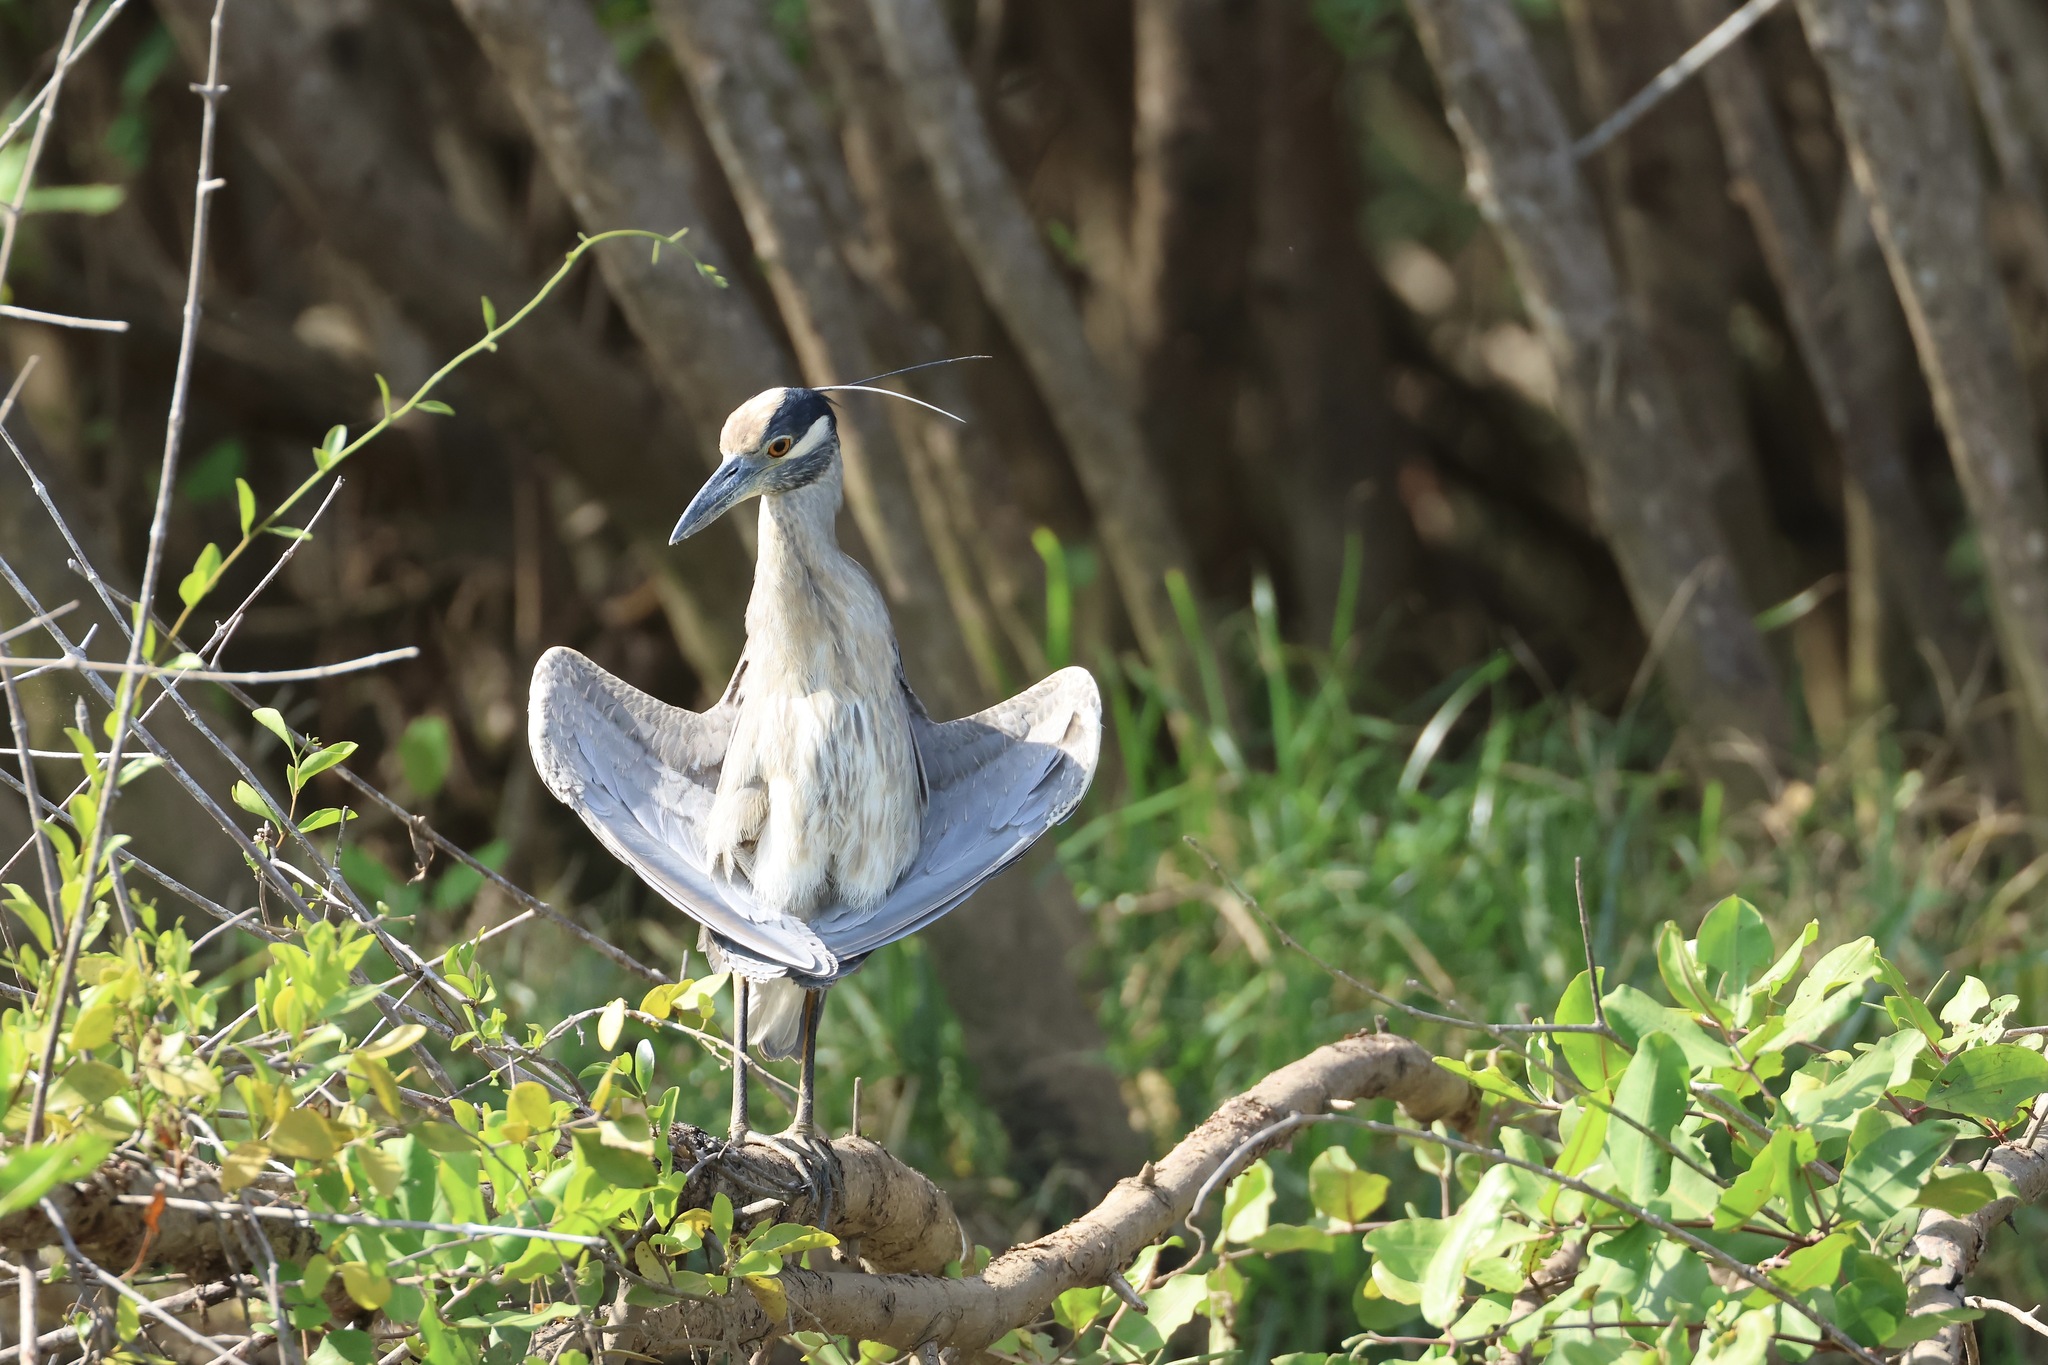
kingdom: Animalia
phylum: Chordata
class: Aves
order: Pelecaniformes
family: Ardeidae
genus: Nyctanassa
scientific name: Nyctanassa violacea
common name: Yellow-crowned night heron
